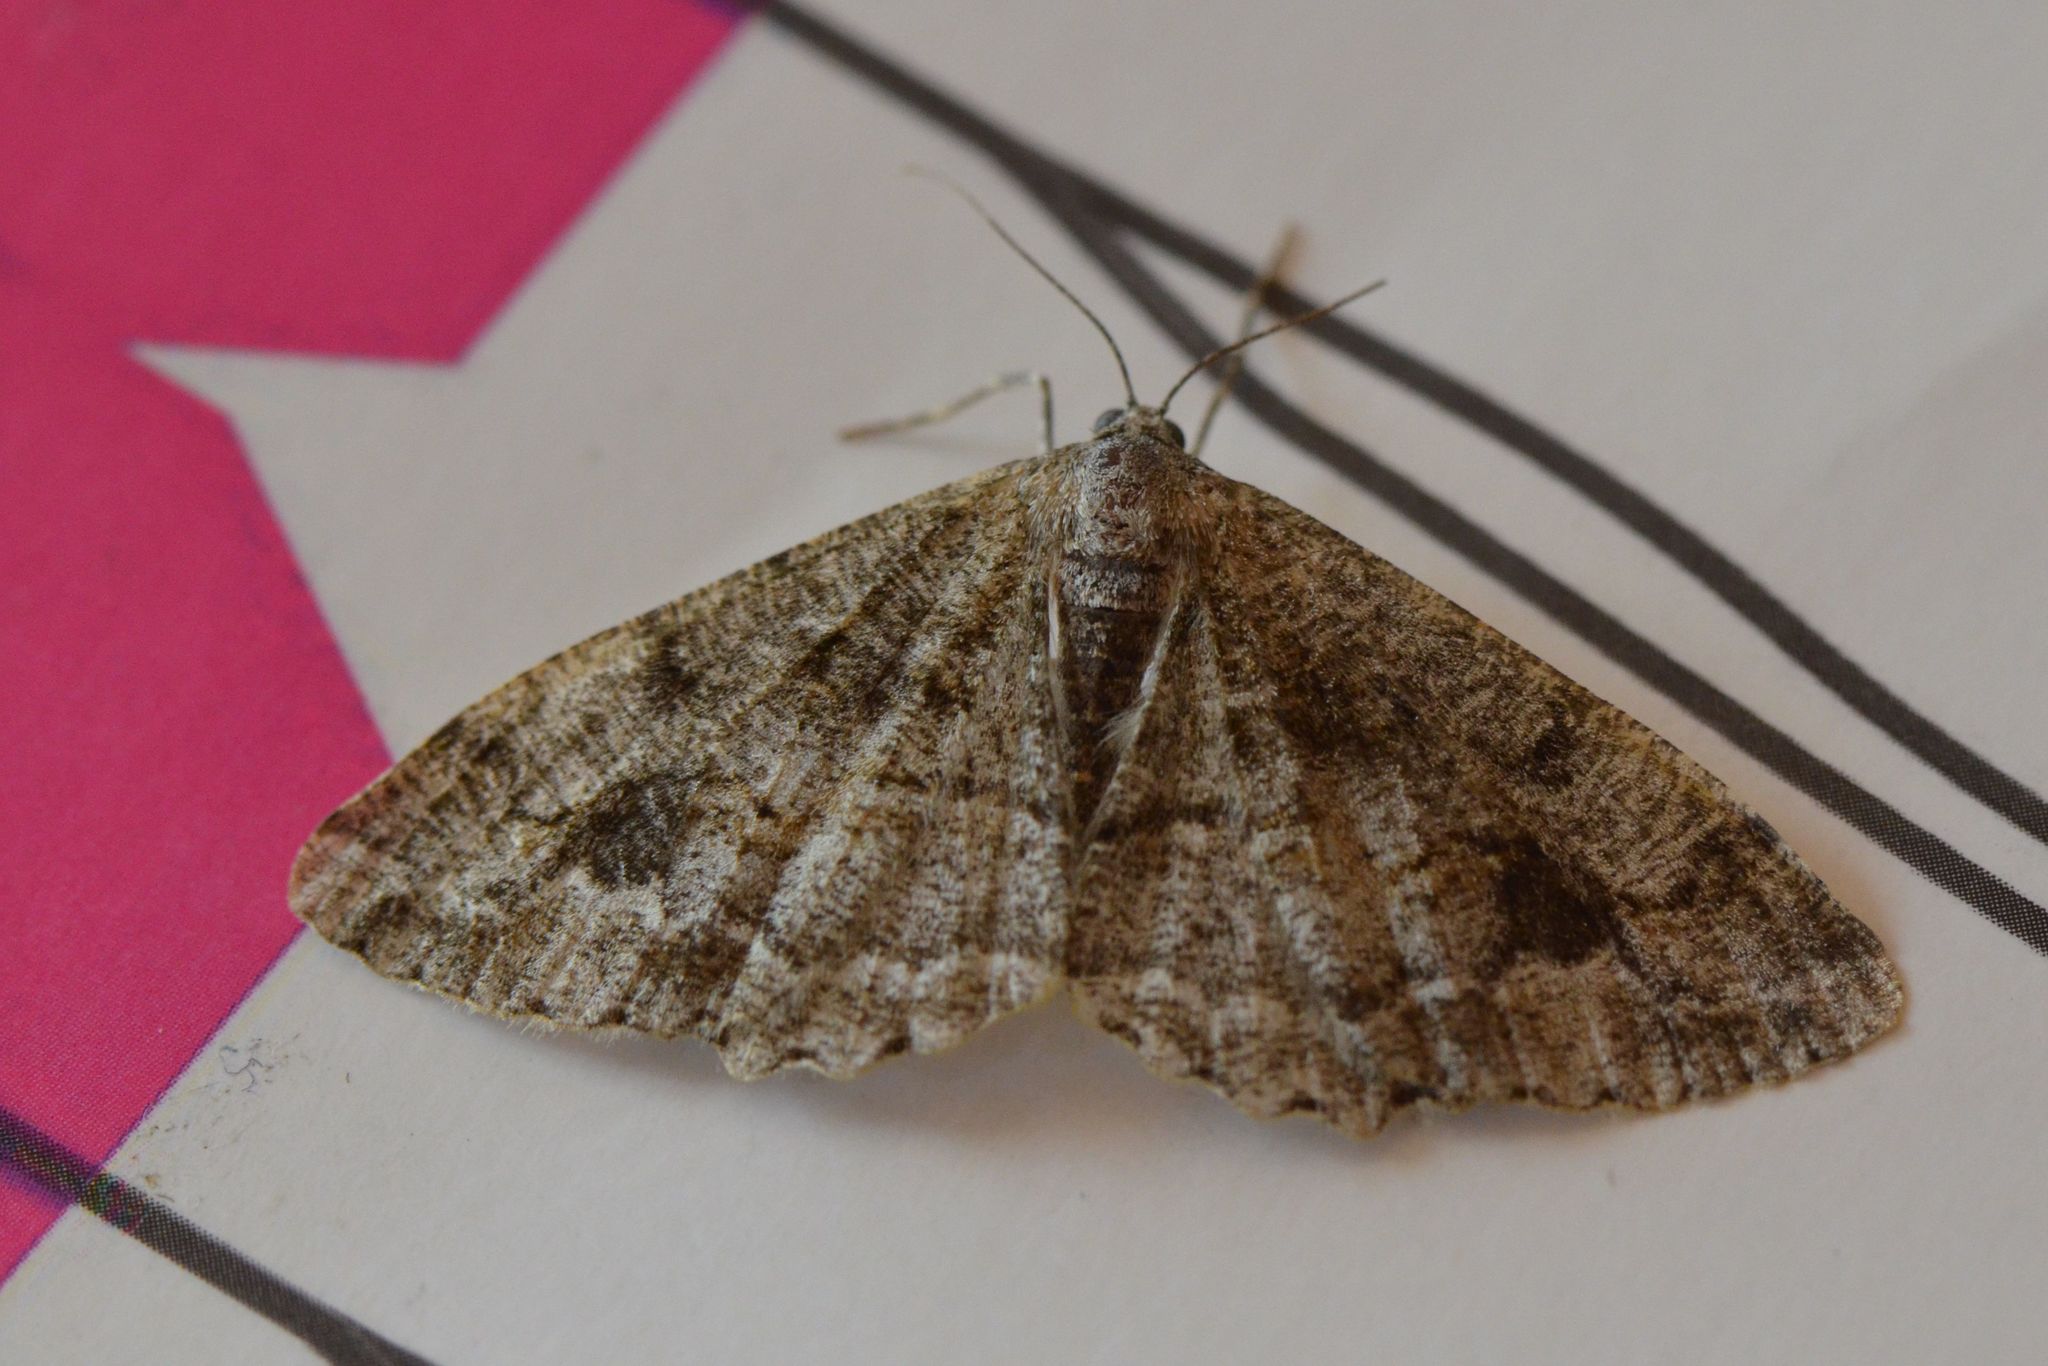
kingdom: Animalia
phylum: Arthropoda
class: Insecta
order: Lepidoptera
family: Geometridae
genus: Alcis
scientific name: Alcis repandata
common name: Mottled beauty
